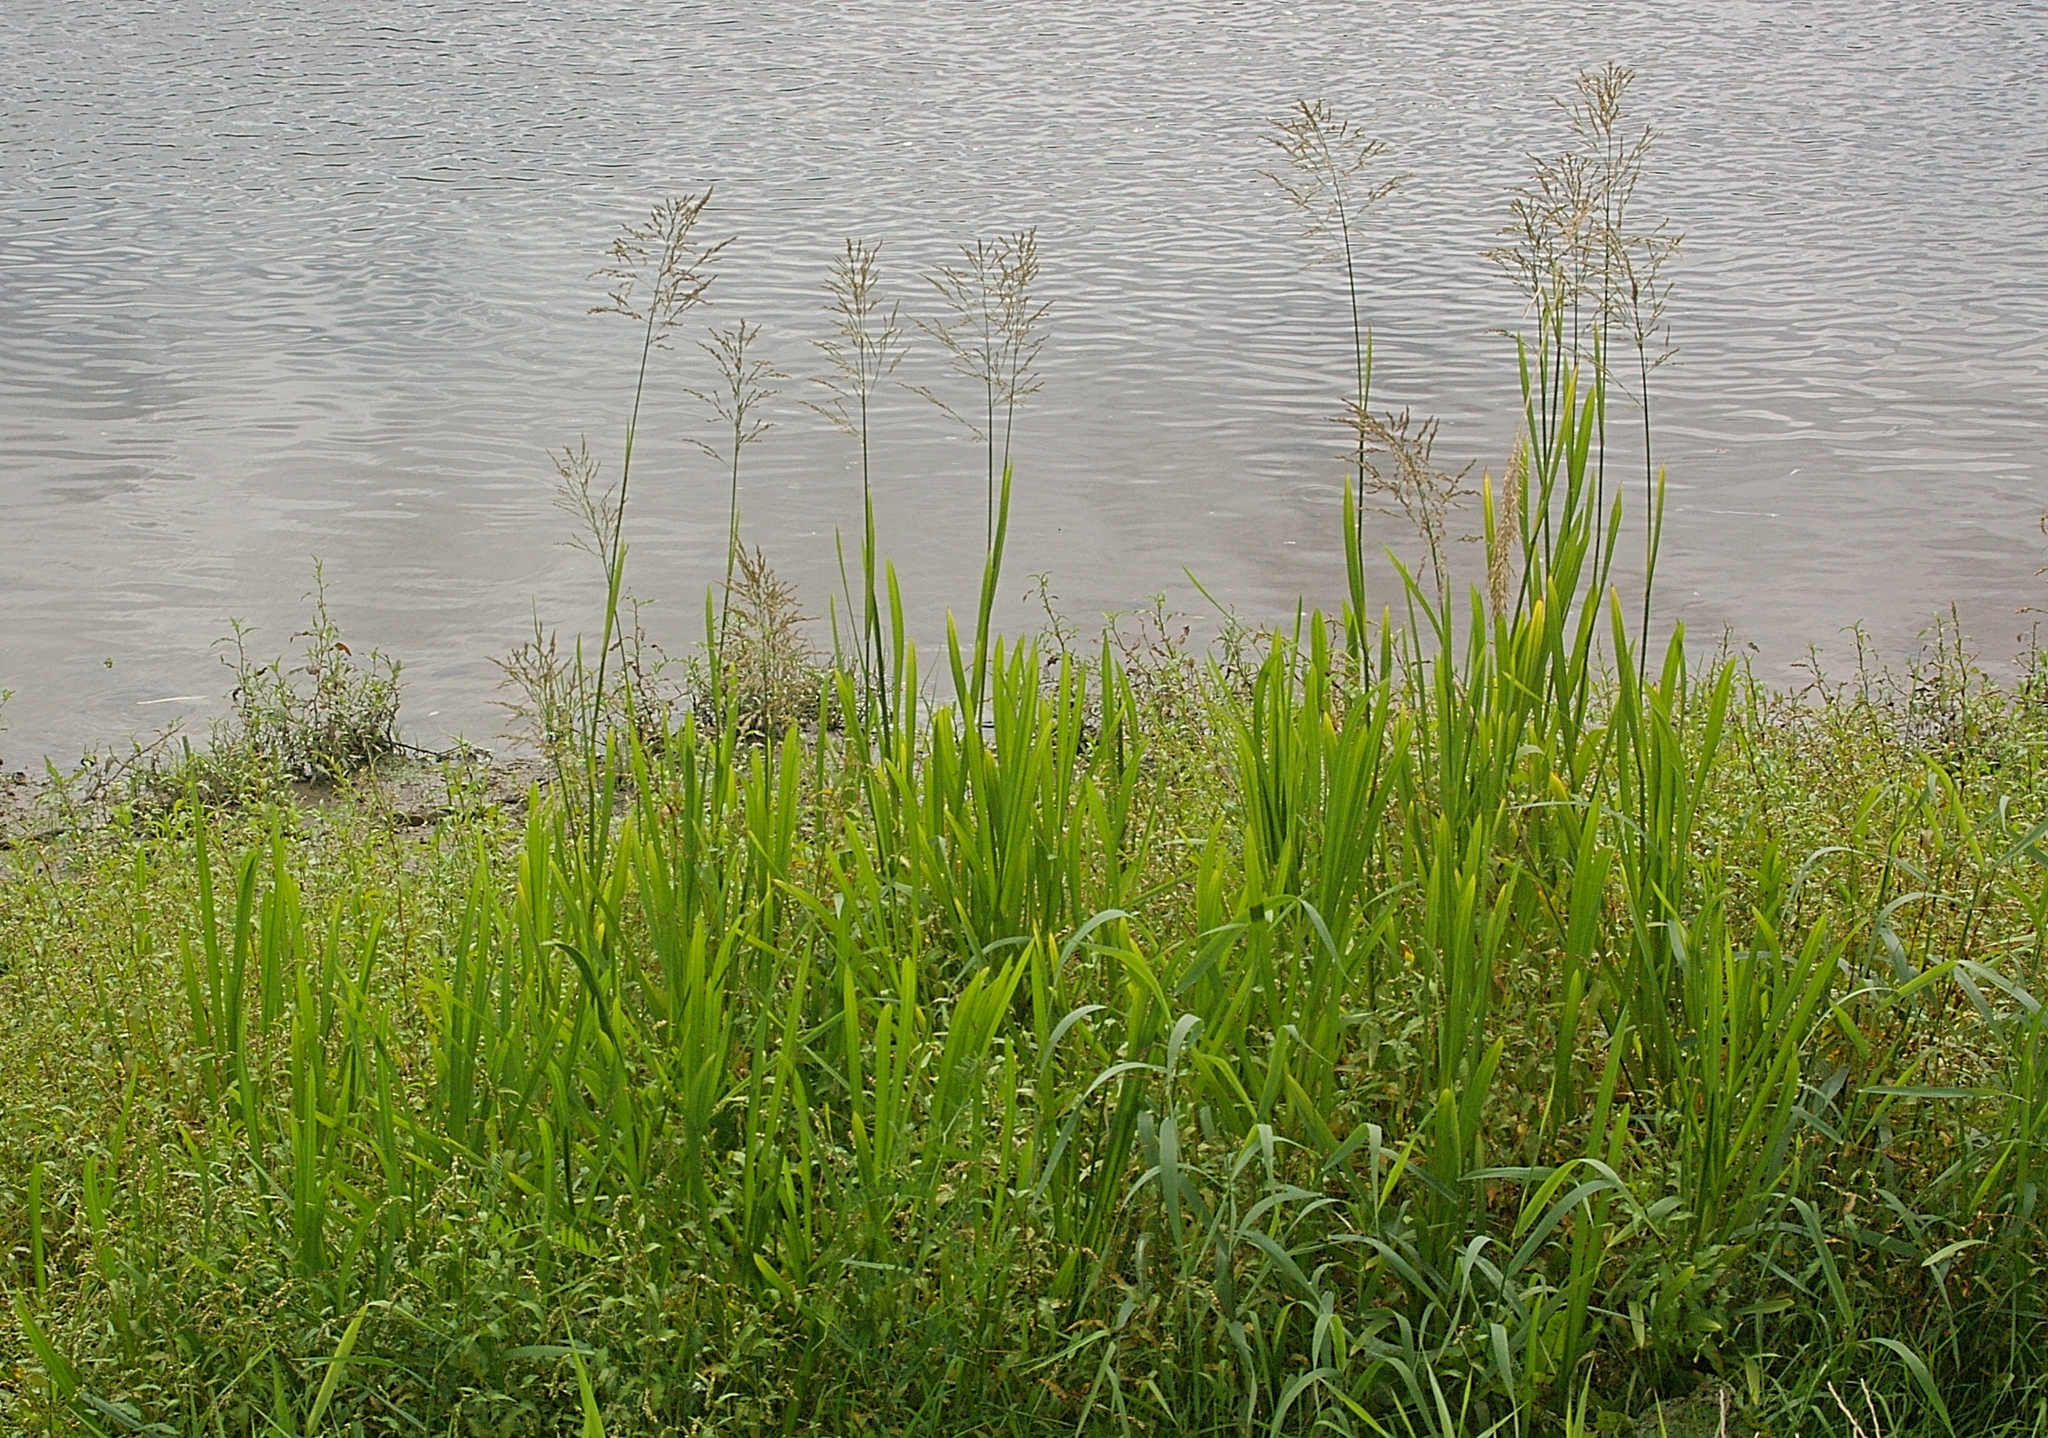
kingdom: Plantae
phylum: Tracheophyta
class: Liliopsida
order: Poales
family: Poaceae
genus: Glyceria
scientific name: Glyceria maxima
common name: Reed mannagrass
